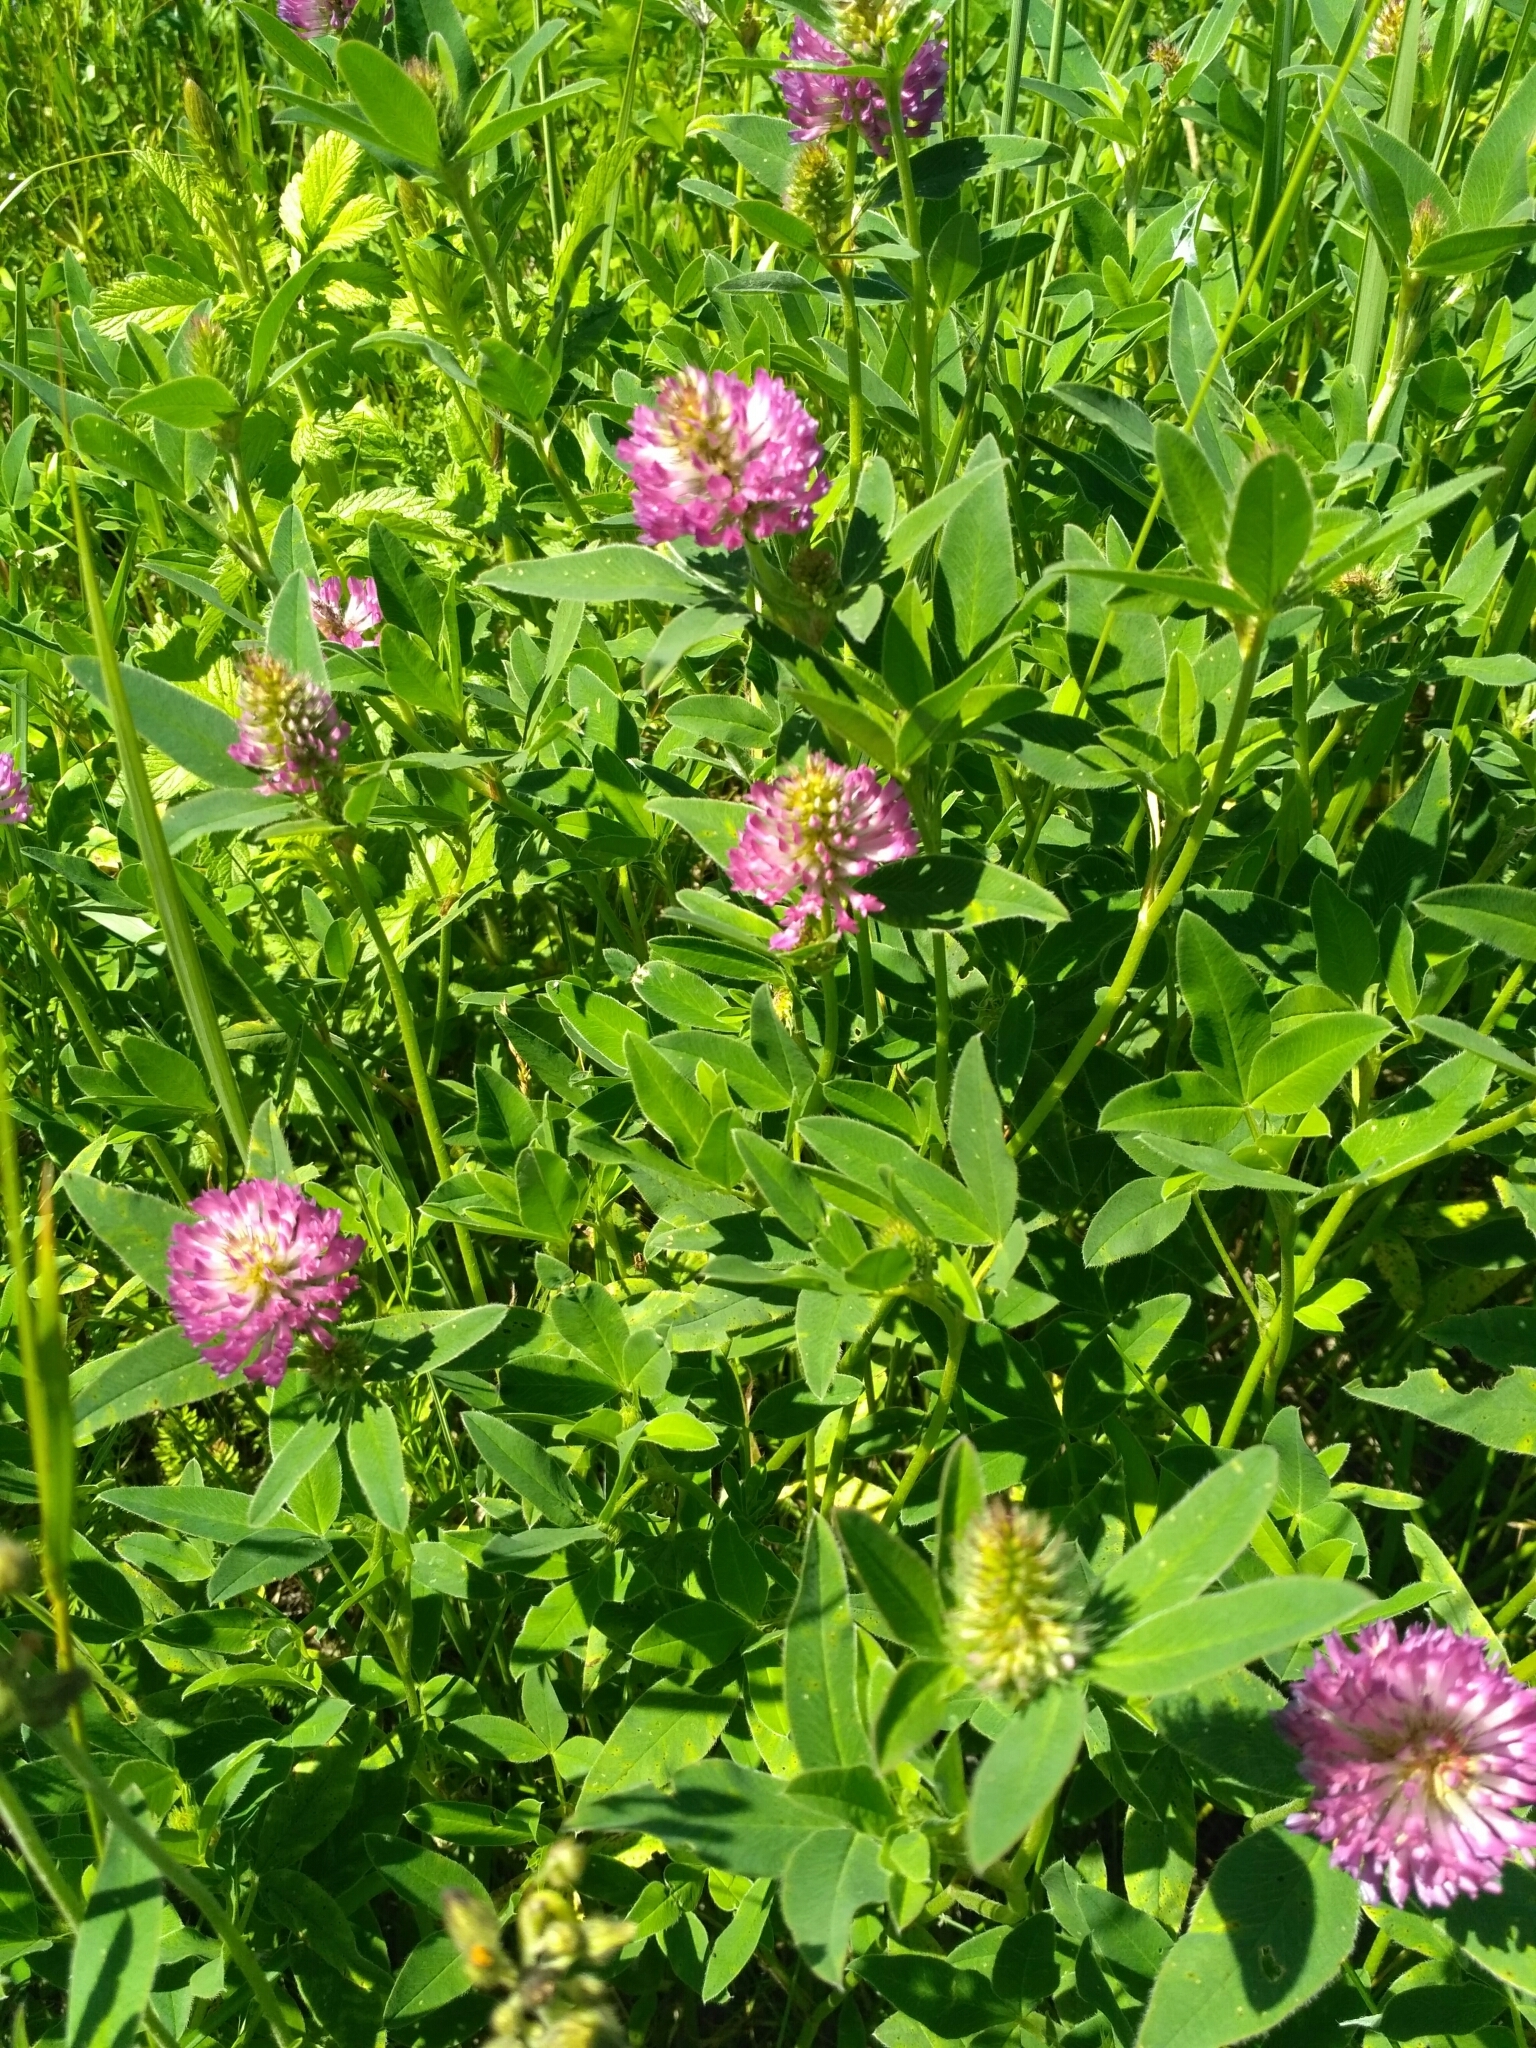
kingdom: Plantae
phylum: Tracheophyta
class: Magnoliopsida
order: Fabales
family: Fabaceae
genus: Trifolium
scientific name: Trifolium medium
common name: Zigzag clover
